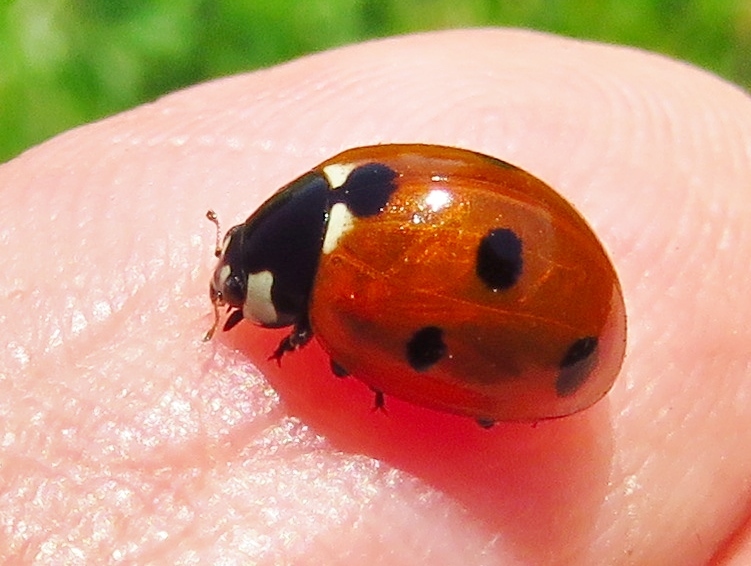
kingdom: Animalia
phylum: Arthropoda
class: Insecta
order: Coleoptera
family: Coccinellidae
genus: Coccinella
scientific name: Coccinella septempunctata
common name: Sevenspotted lady beetle
